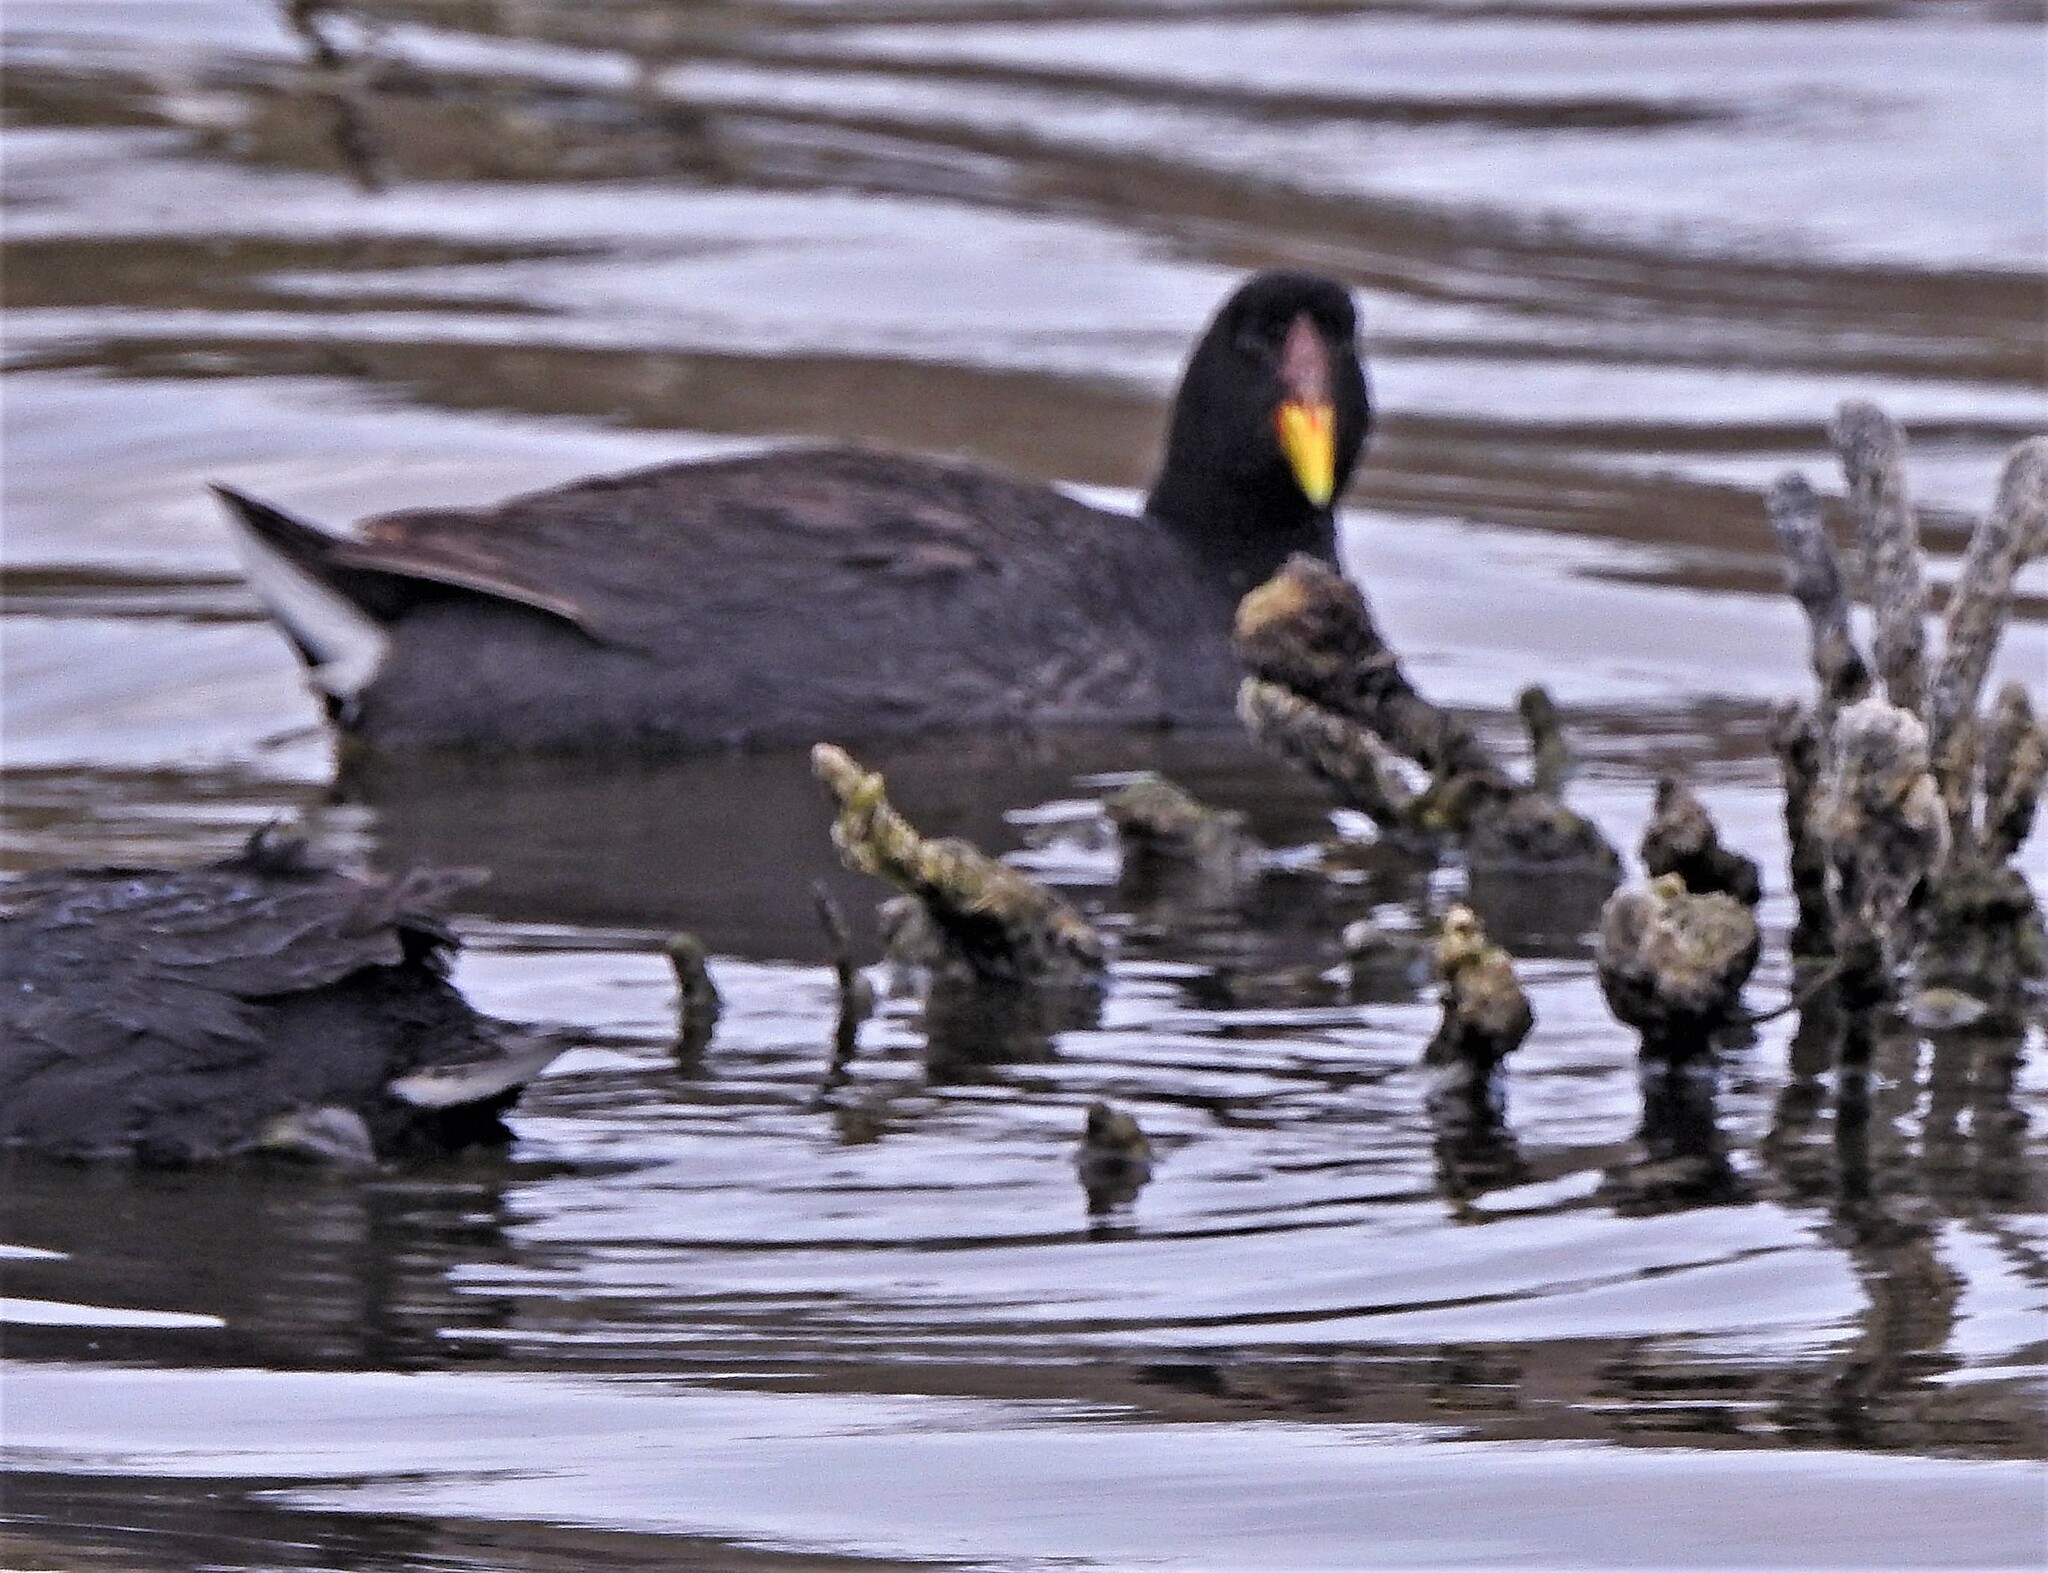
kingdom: Animalia
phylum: Chordata
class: Aves
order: Gruiformes
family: Rallidae
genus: Fulica
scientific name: Fulica rufifrons
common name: Red-fronted coot
